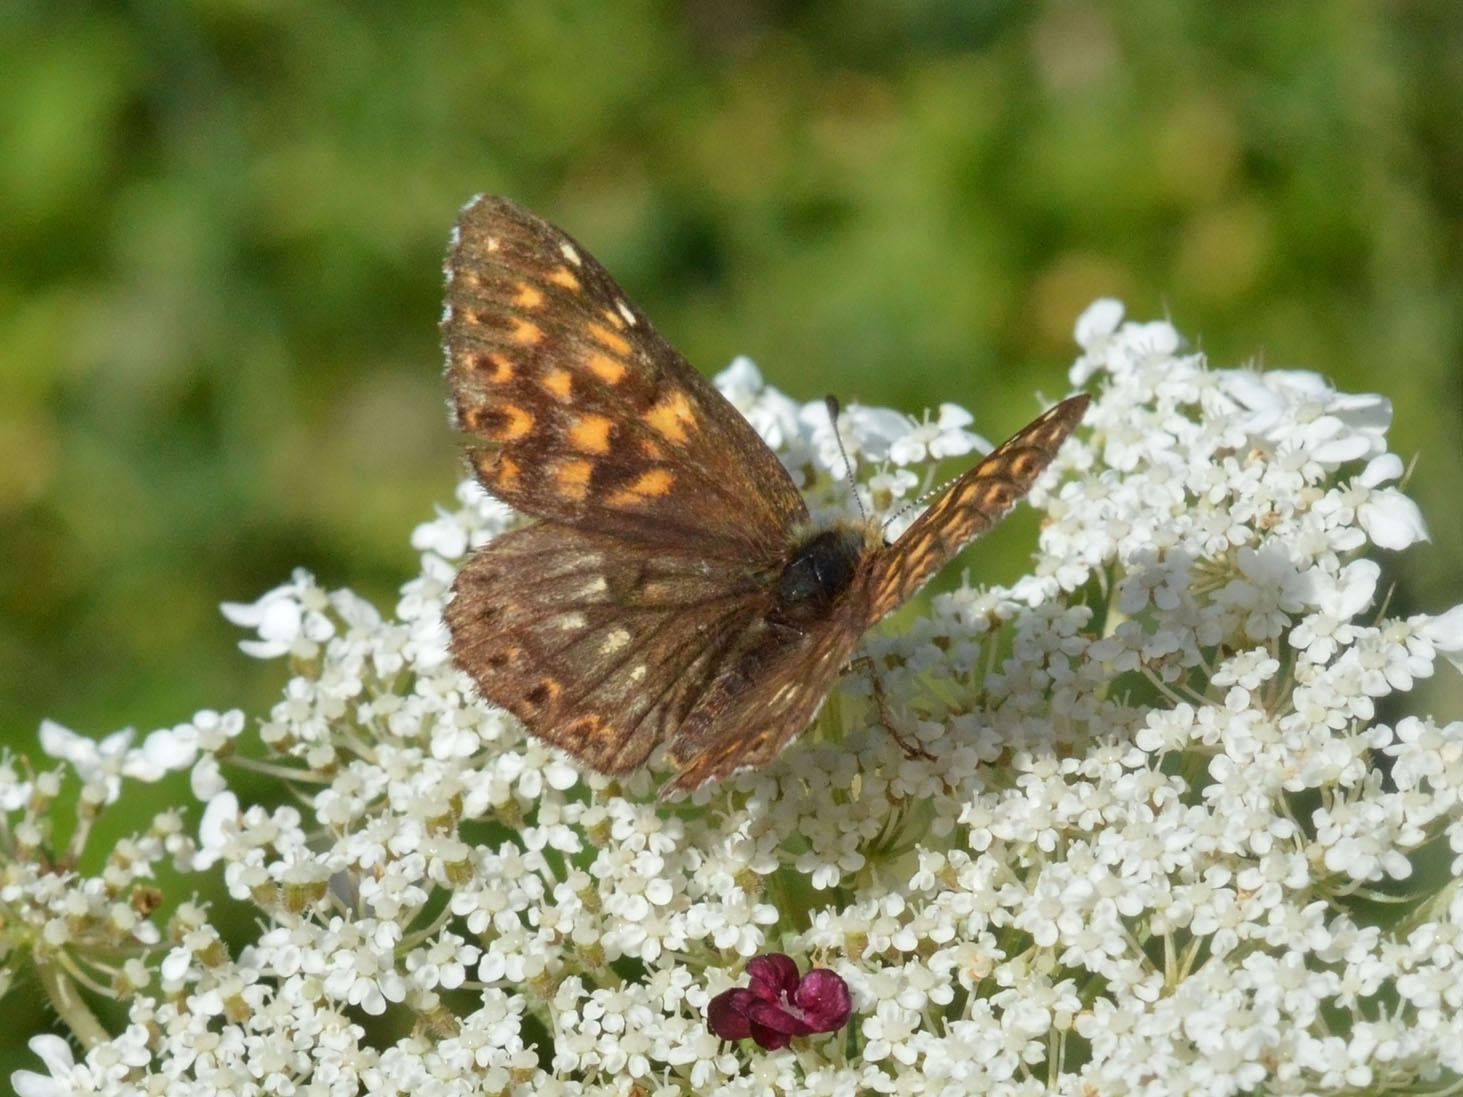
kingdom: Animalia
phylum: Arthropoda
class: Insecta
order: Lepidoptera
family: Riodinidae
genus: Hamearis
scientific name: Hamearis lucina
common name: Duke of burgundy fritillary
